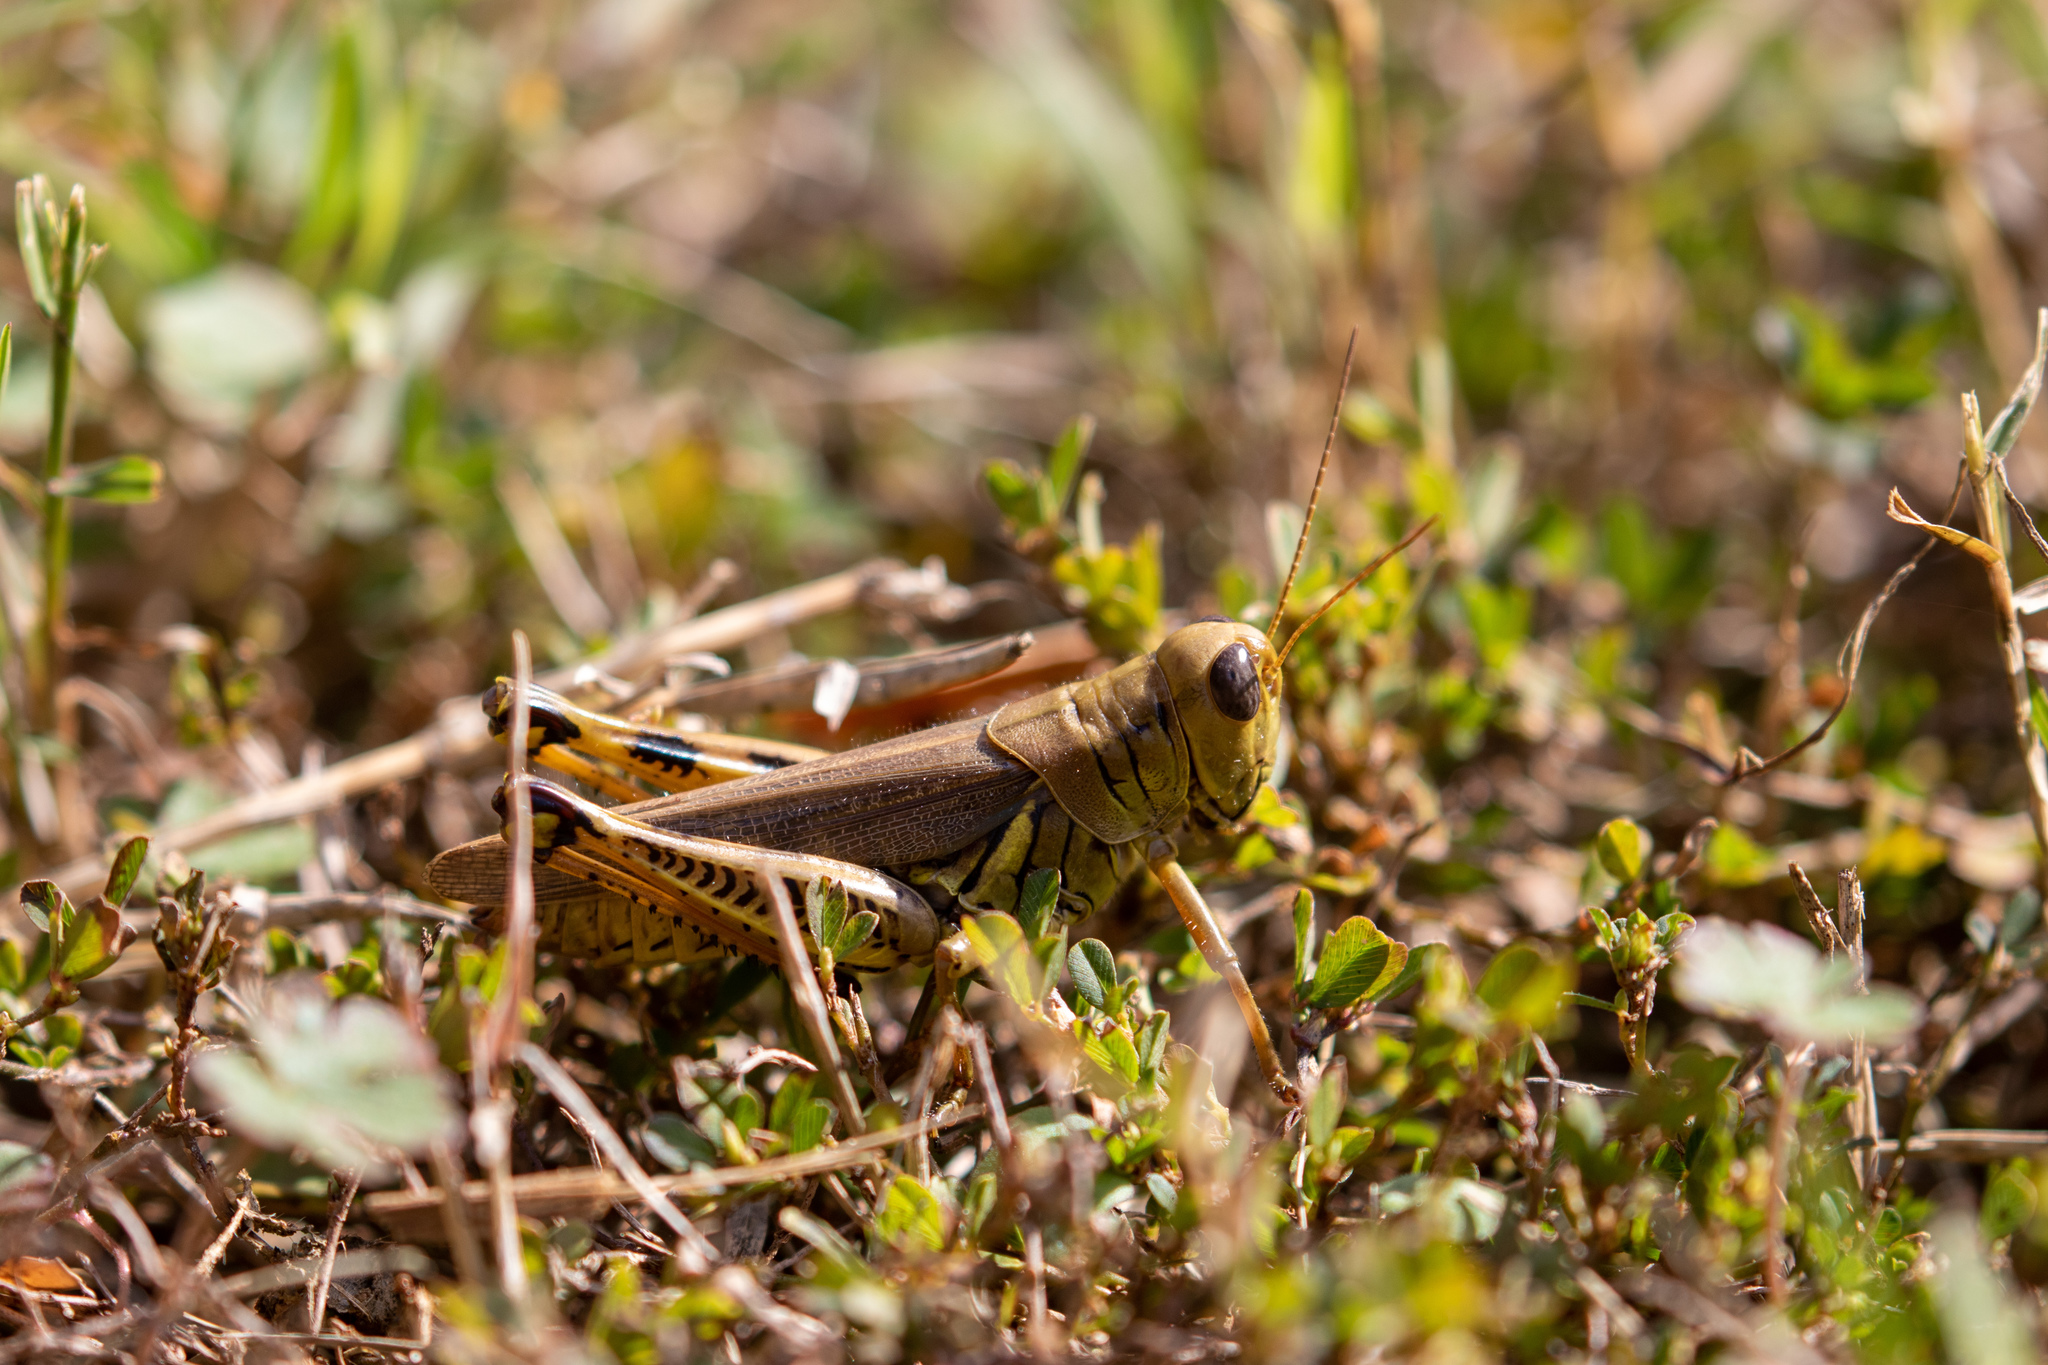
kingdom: Animalia
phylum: Arthropoda
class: Insecta
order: Orthoptera
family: Acrididae
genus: Melanoplus
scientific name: Melanoplus differentialis
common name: Differential grasshopper
